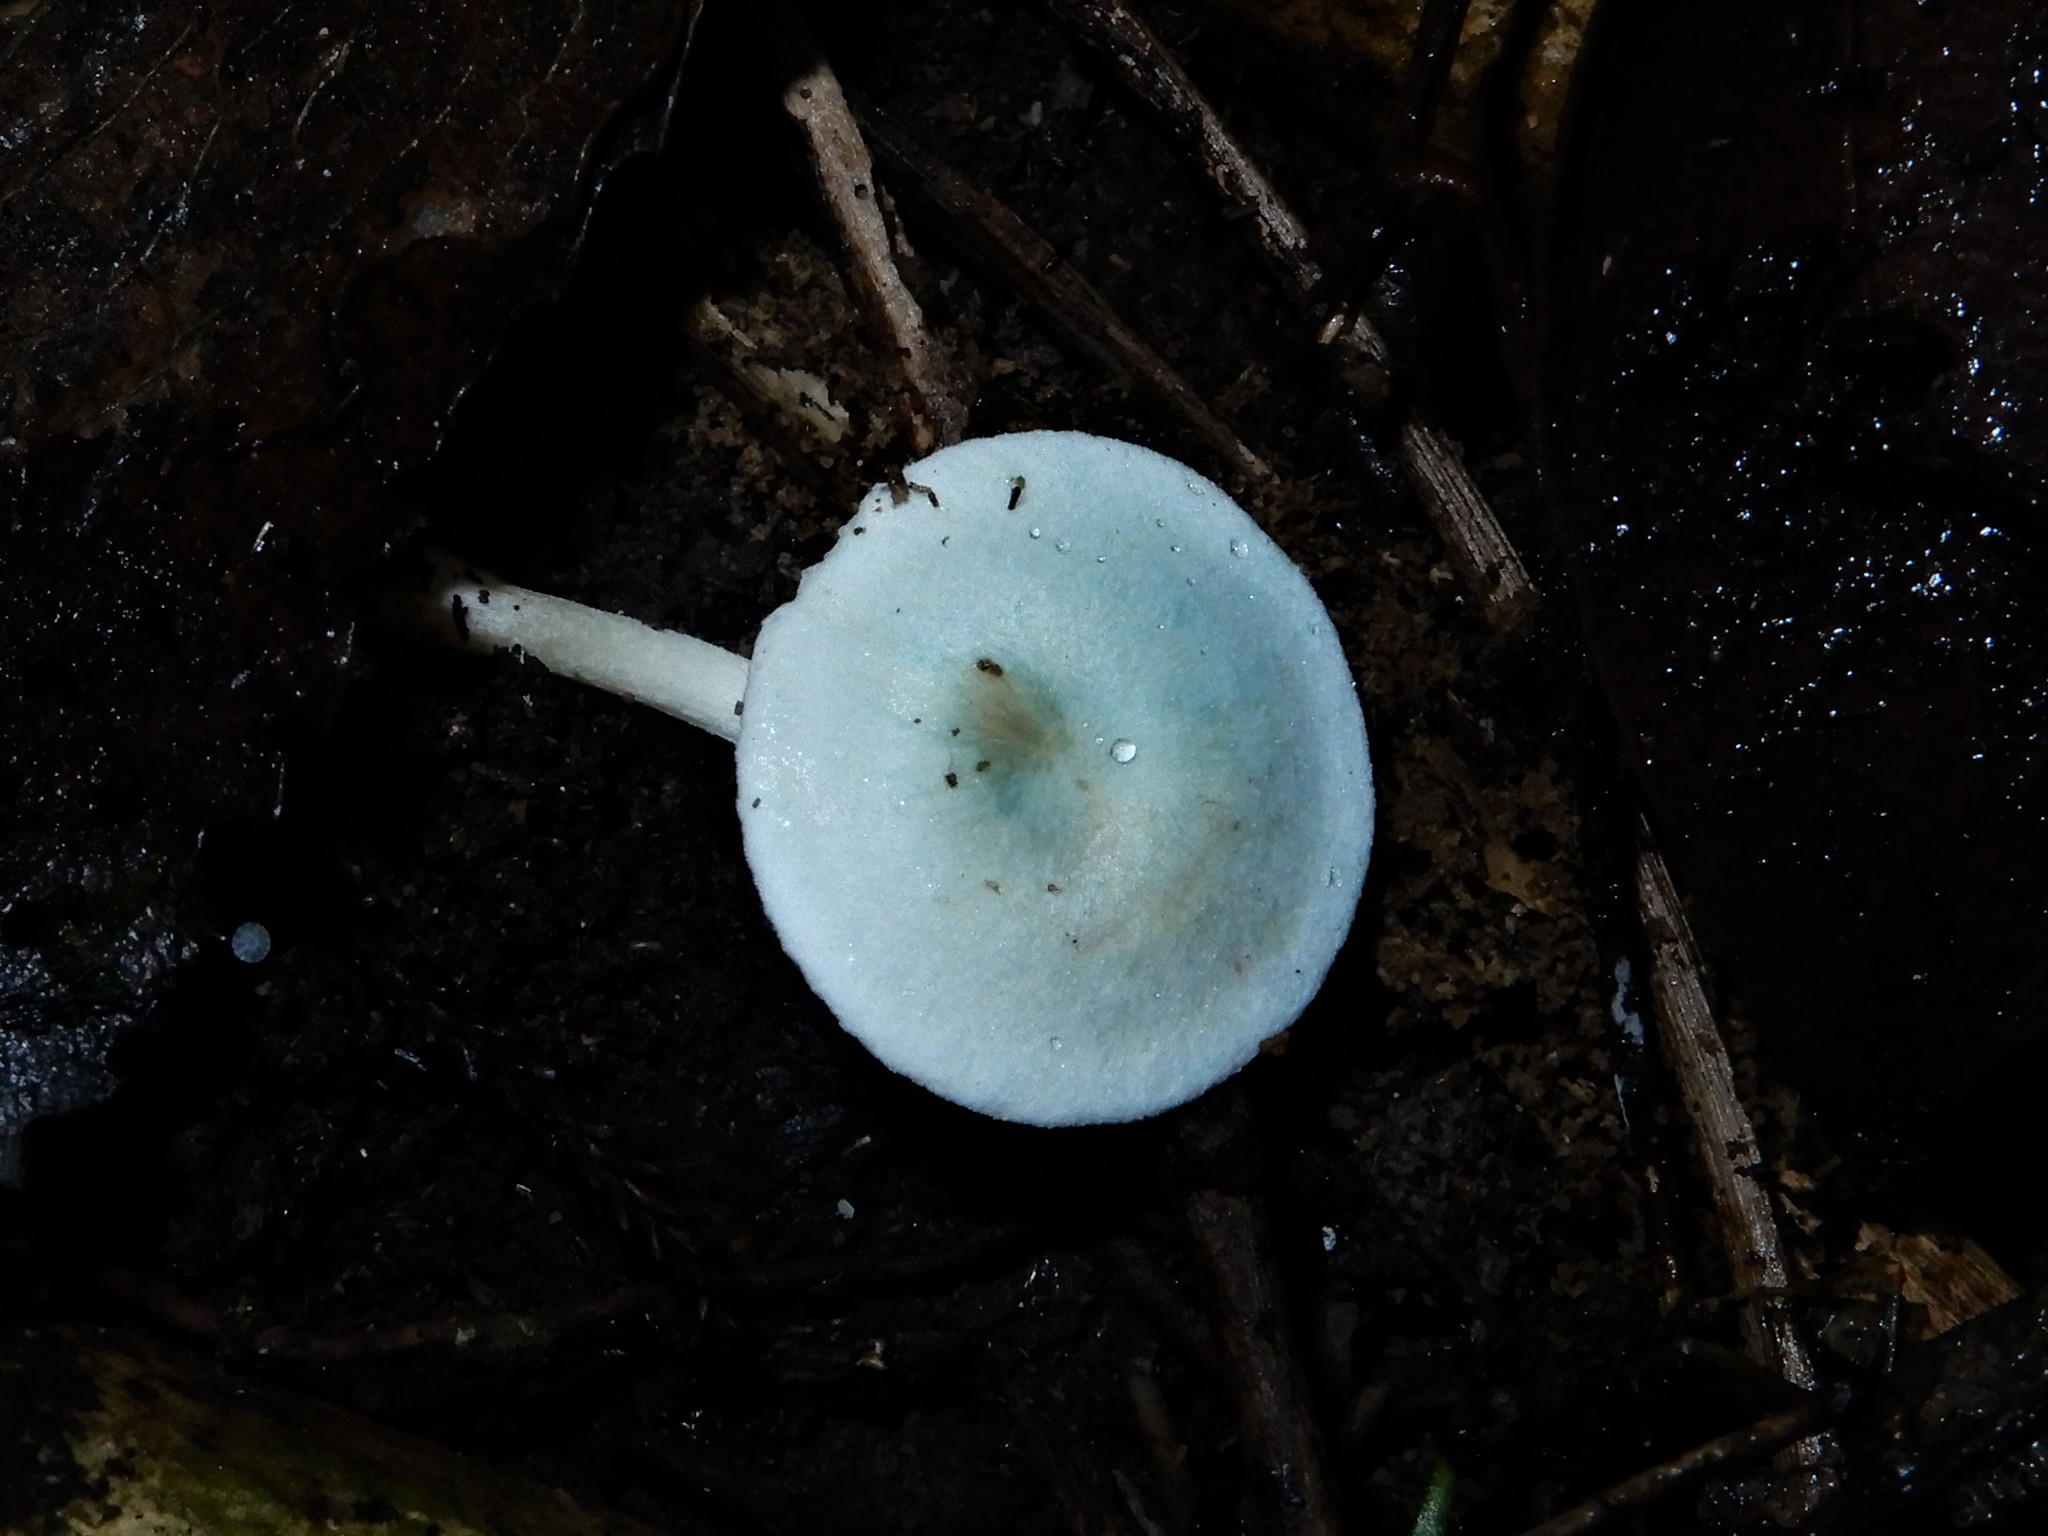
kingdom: Fungi
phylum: Basidiomycota
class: Agaricomycetes
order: Agaricales
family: Hygrophoraceae
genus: Cuphophyllus
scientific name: Cuphophyllus
